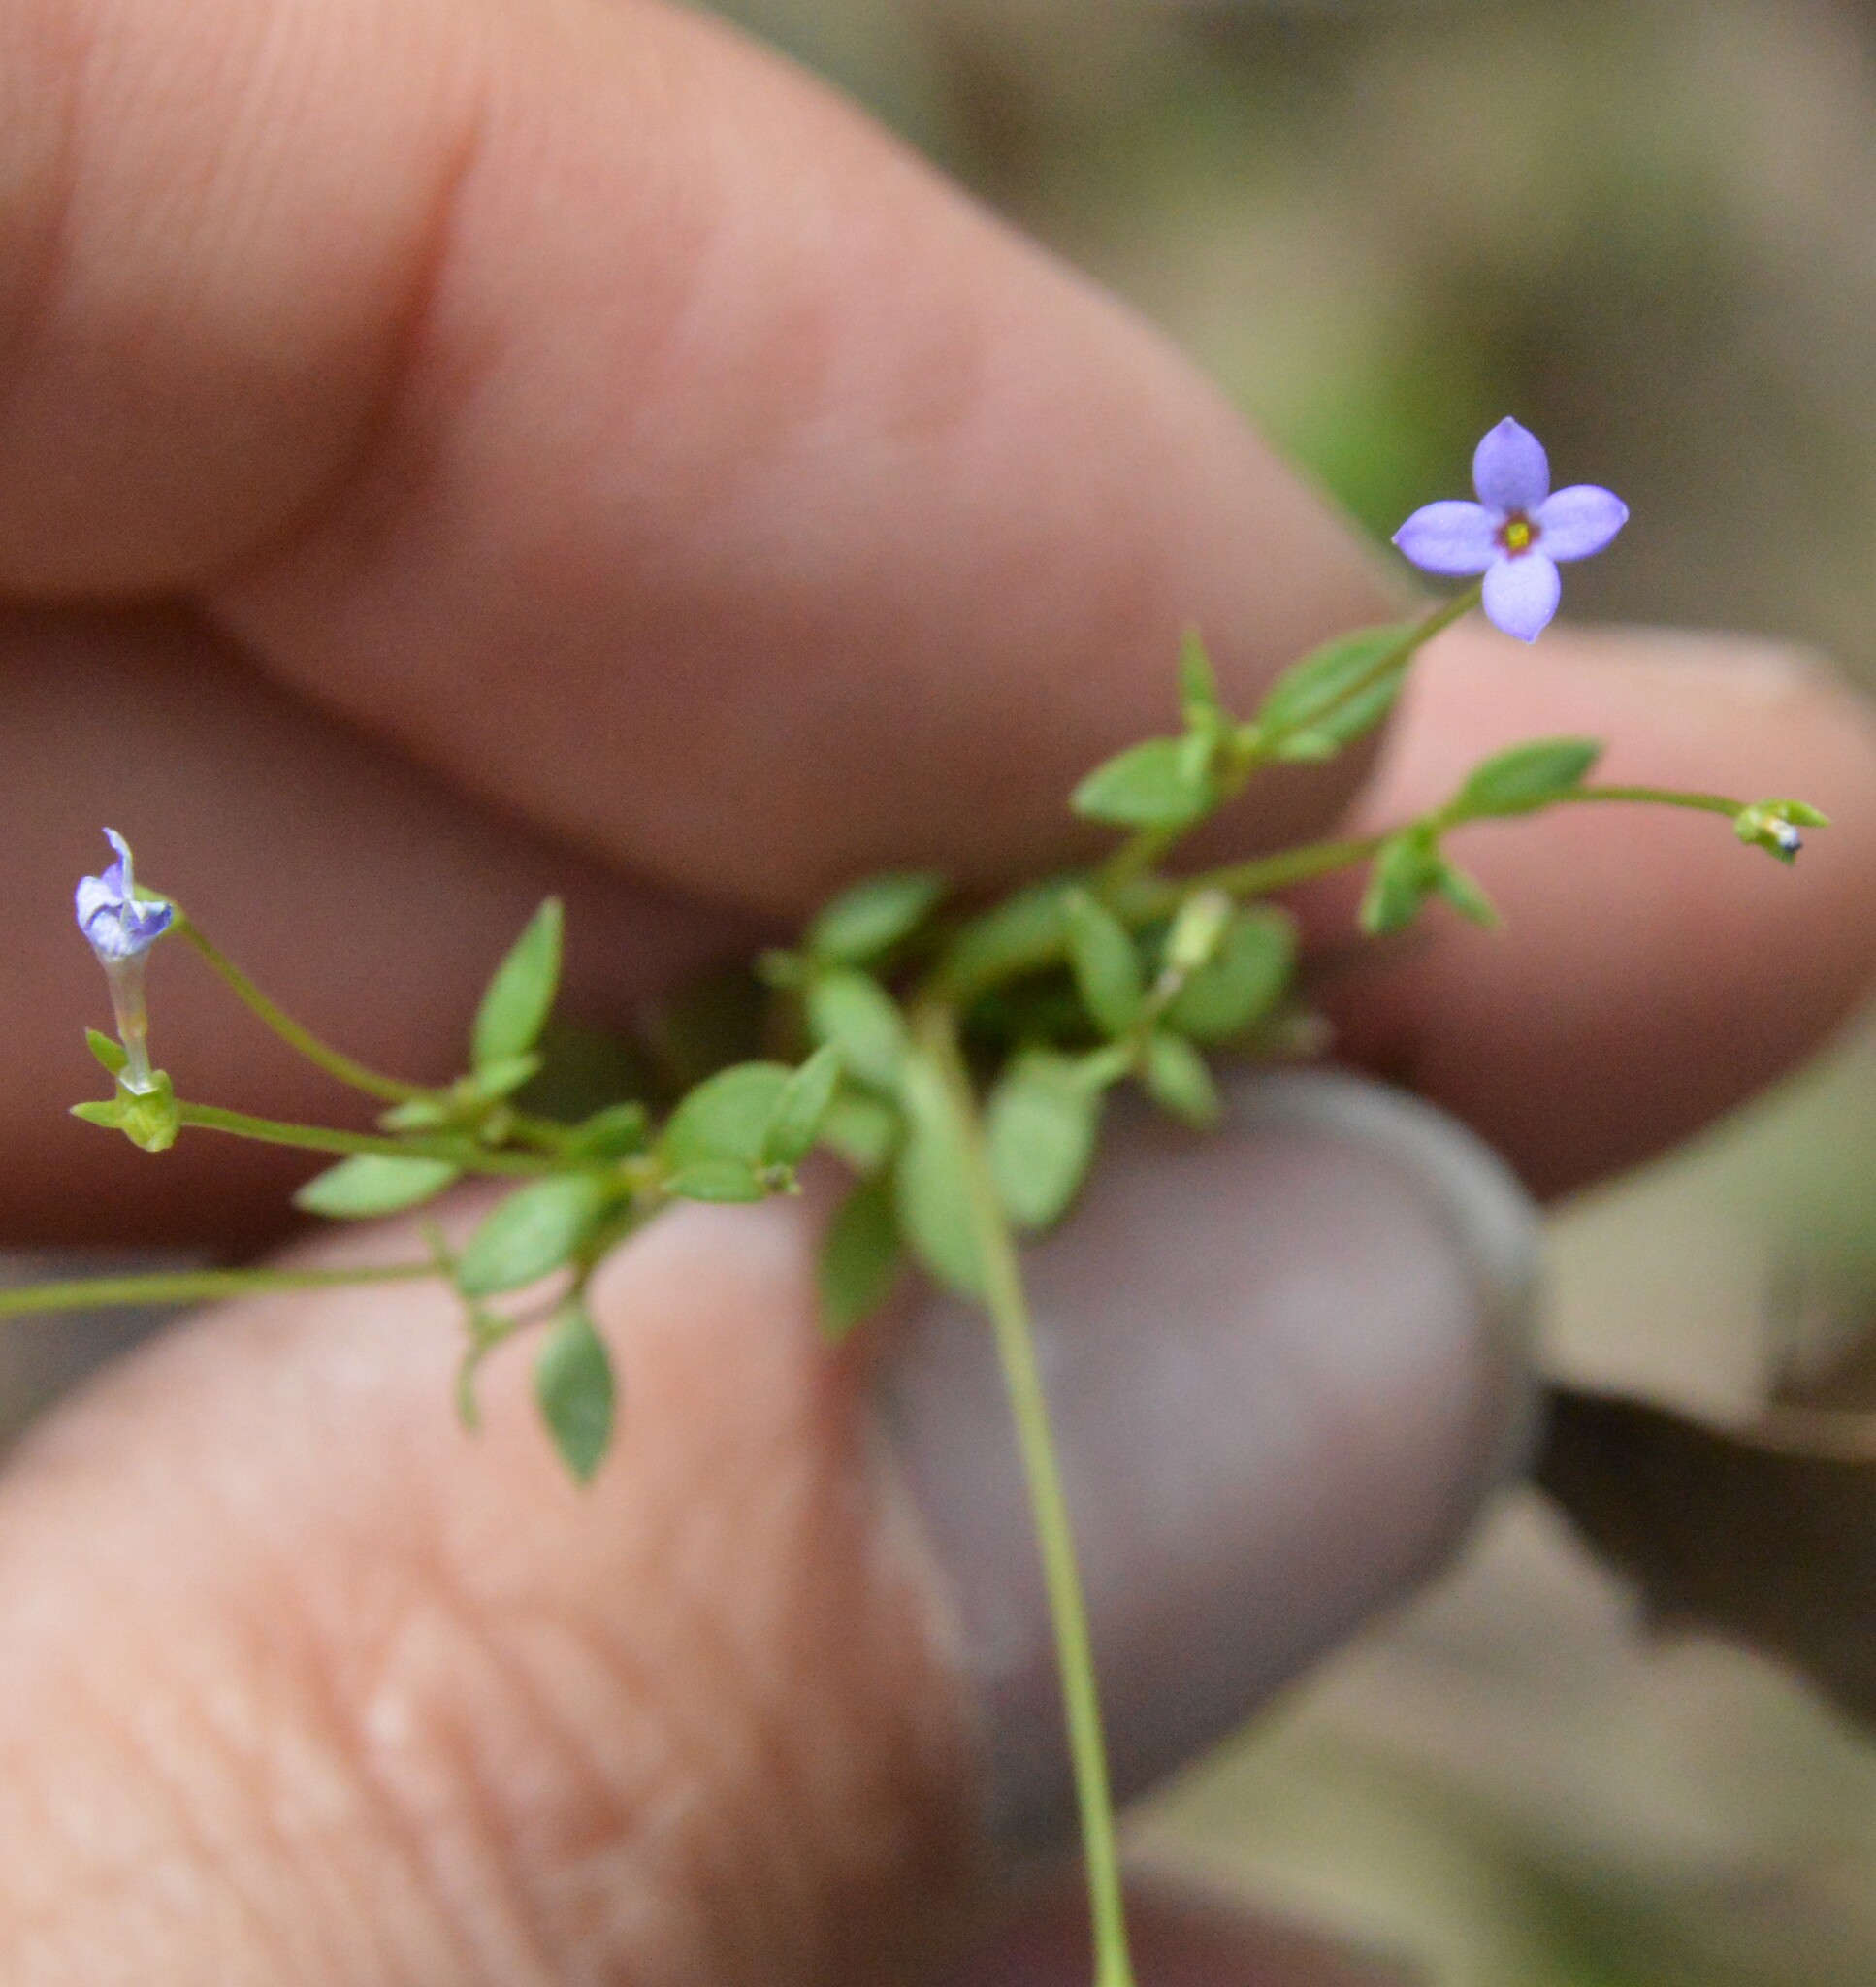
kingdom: Plantae
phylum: Tracheophyta
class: Magnoliopsida
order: Gentianales
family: Rubiaceae
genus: Houstonia
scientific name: Houstonia pusilla
